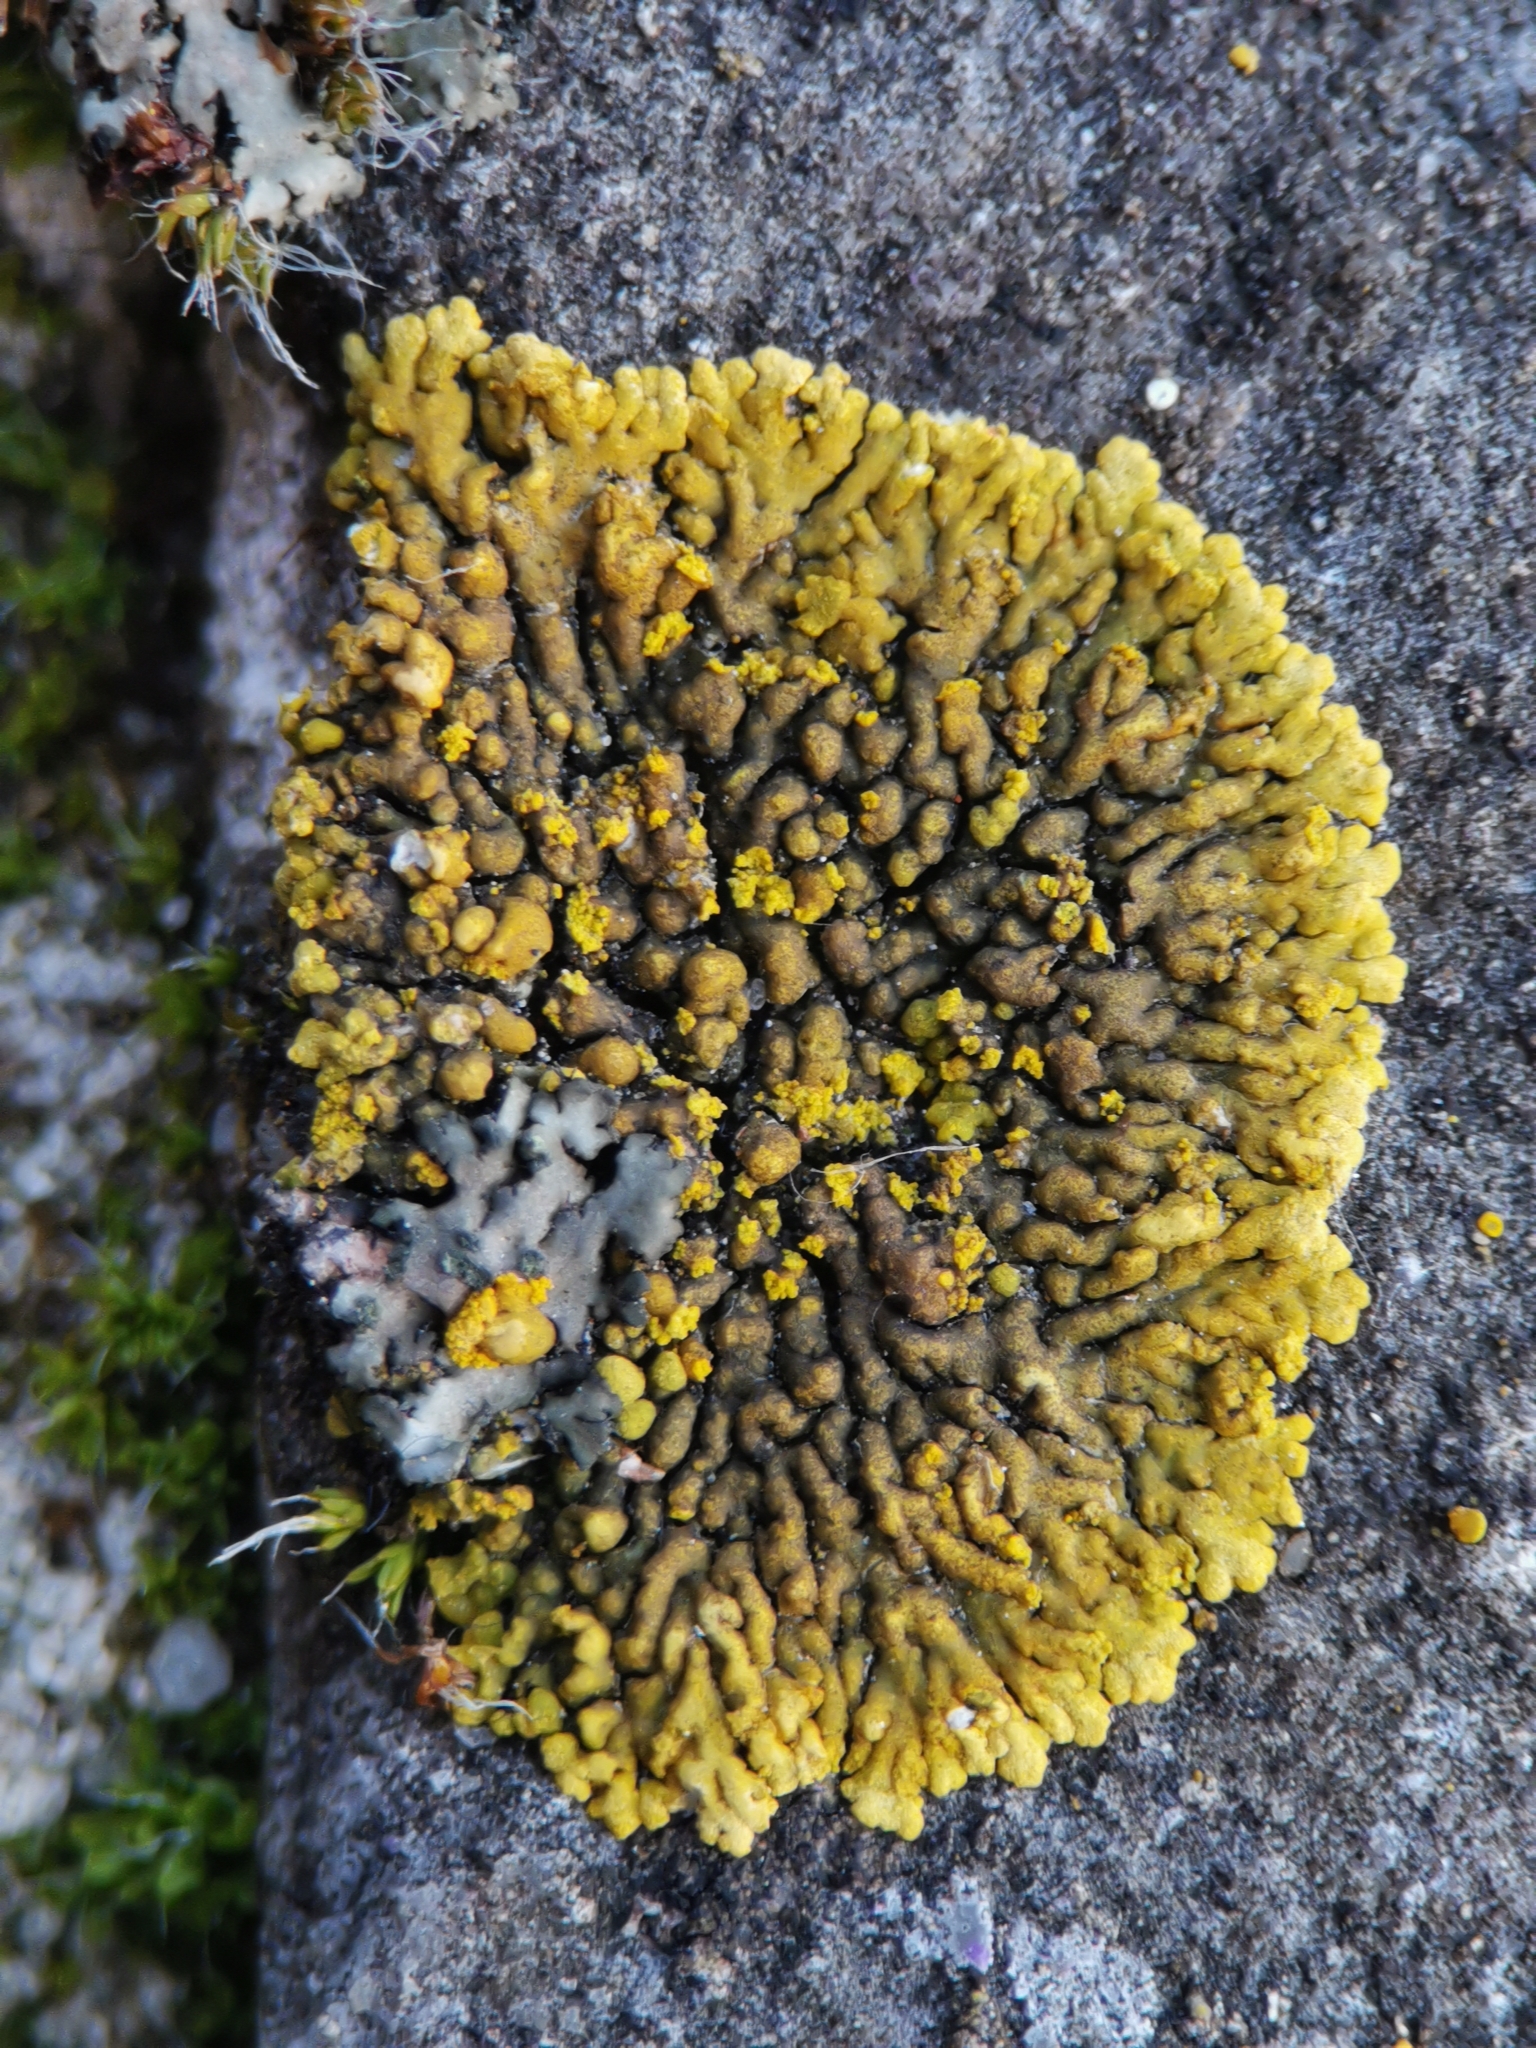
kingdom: Fungi
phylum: Ascomycota
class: Lecanoromycetes
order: Teloschistales
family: Teloschistaceae
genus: Calogaya
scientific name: Calogaya decipiens
